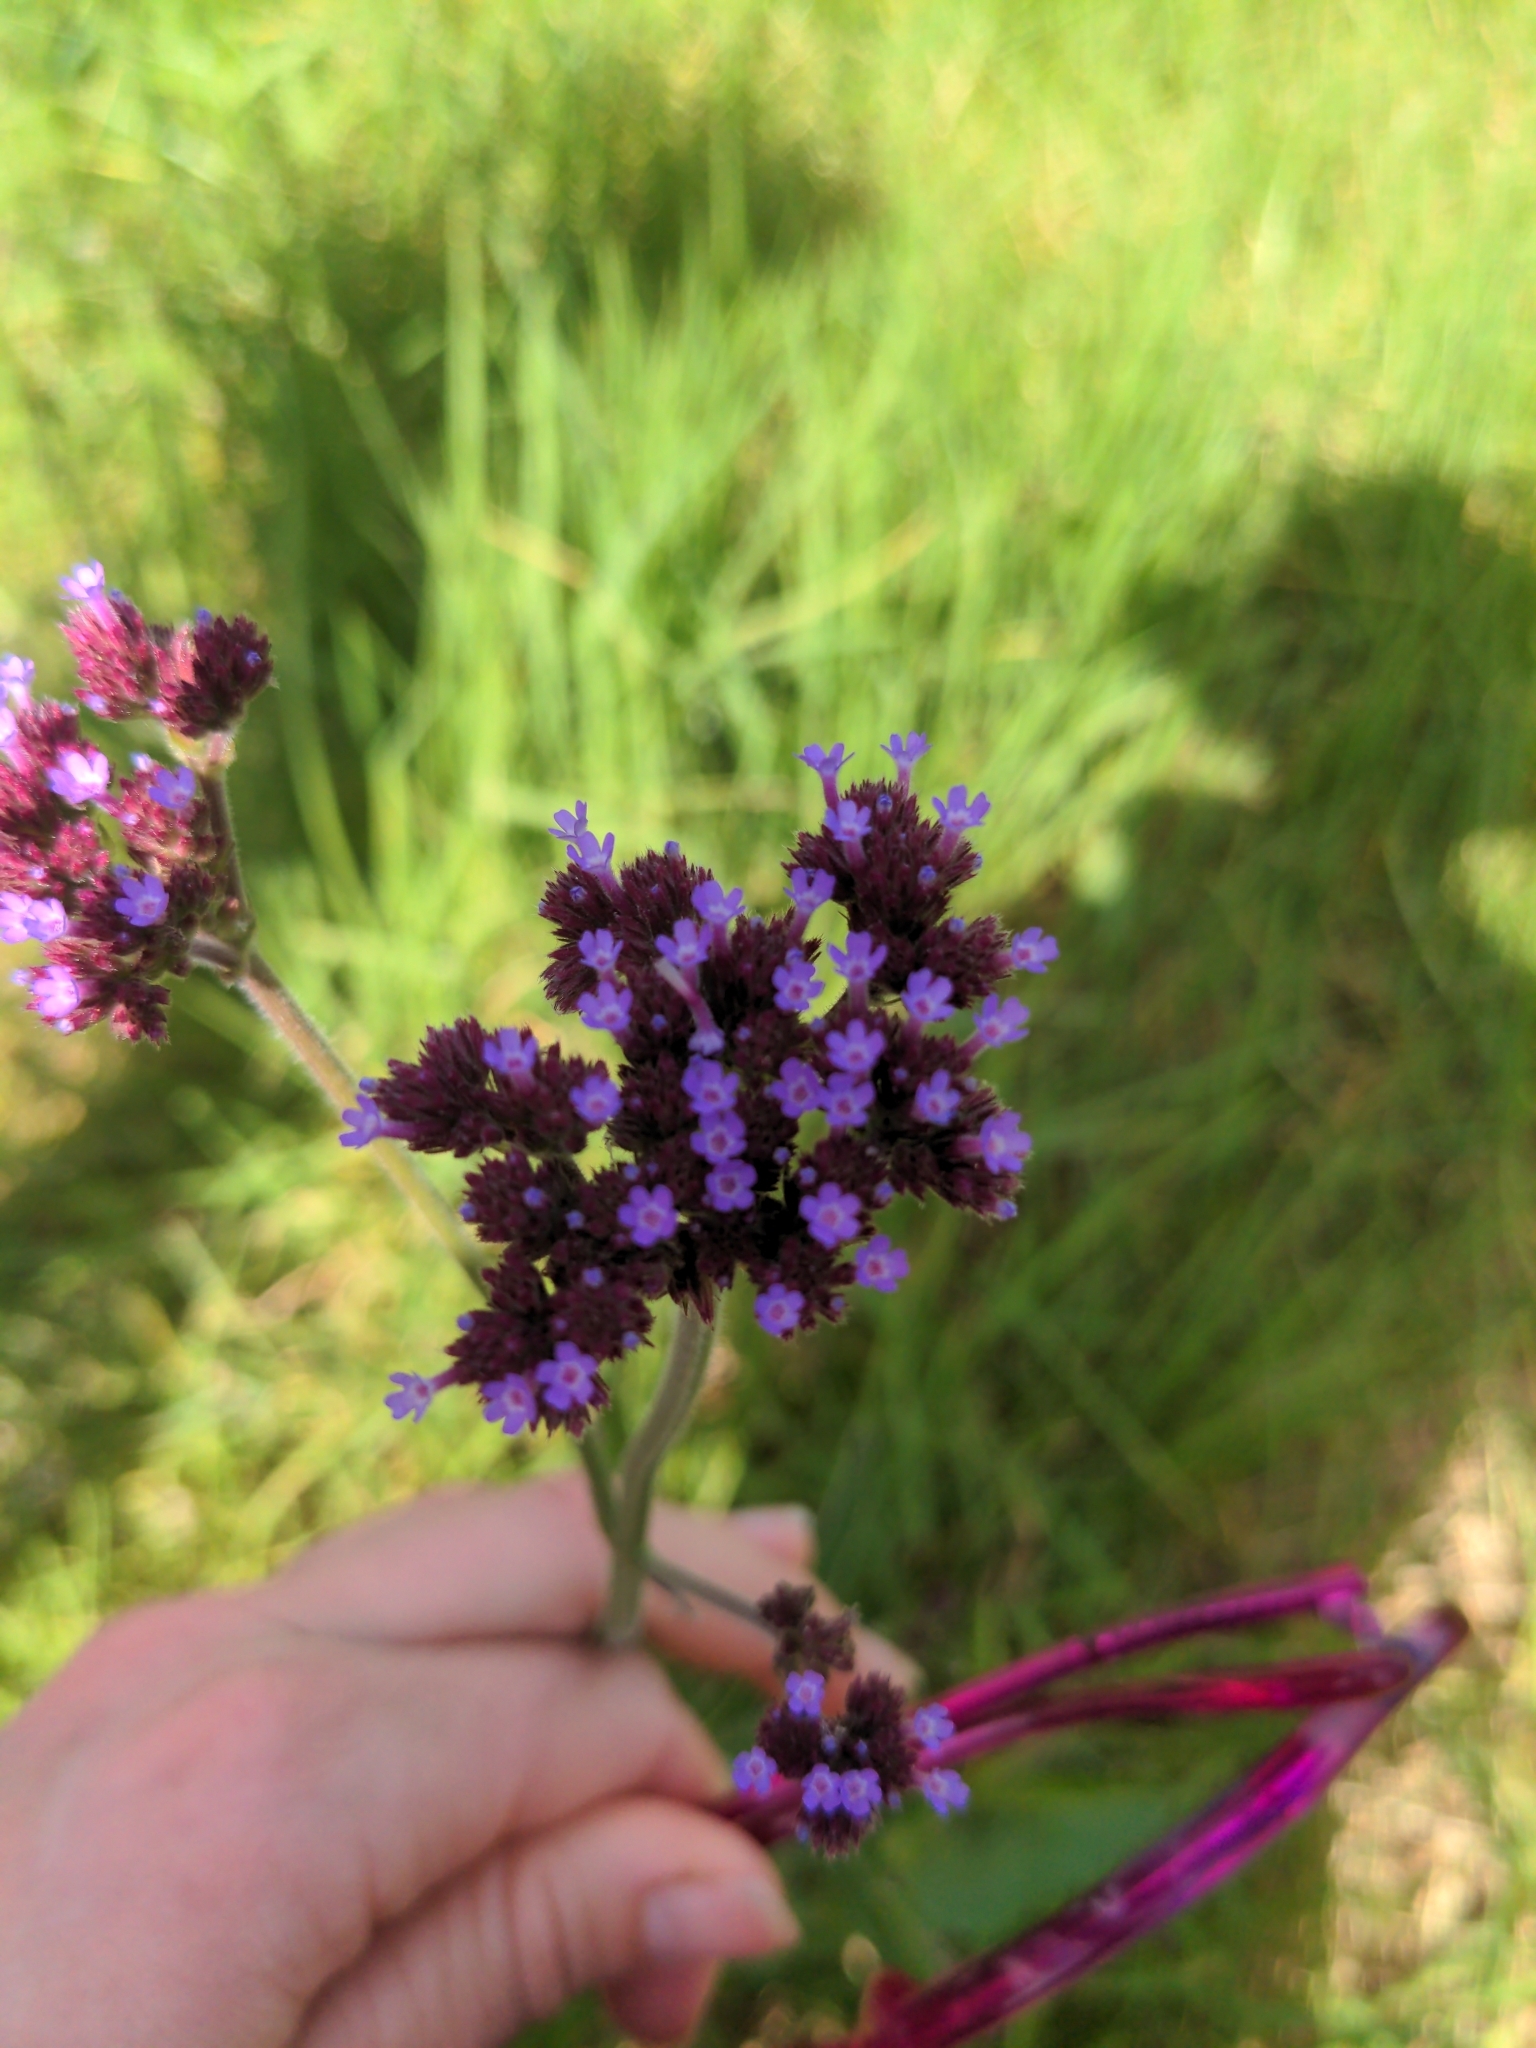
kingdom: Plantae
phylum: Tracheophyta
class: Magnoliopsida
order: Lamiales
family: Verbenaceae
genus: Verbena
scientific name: Verbena incompta
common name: Purpletop vervain
